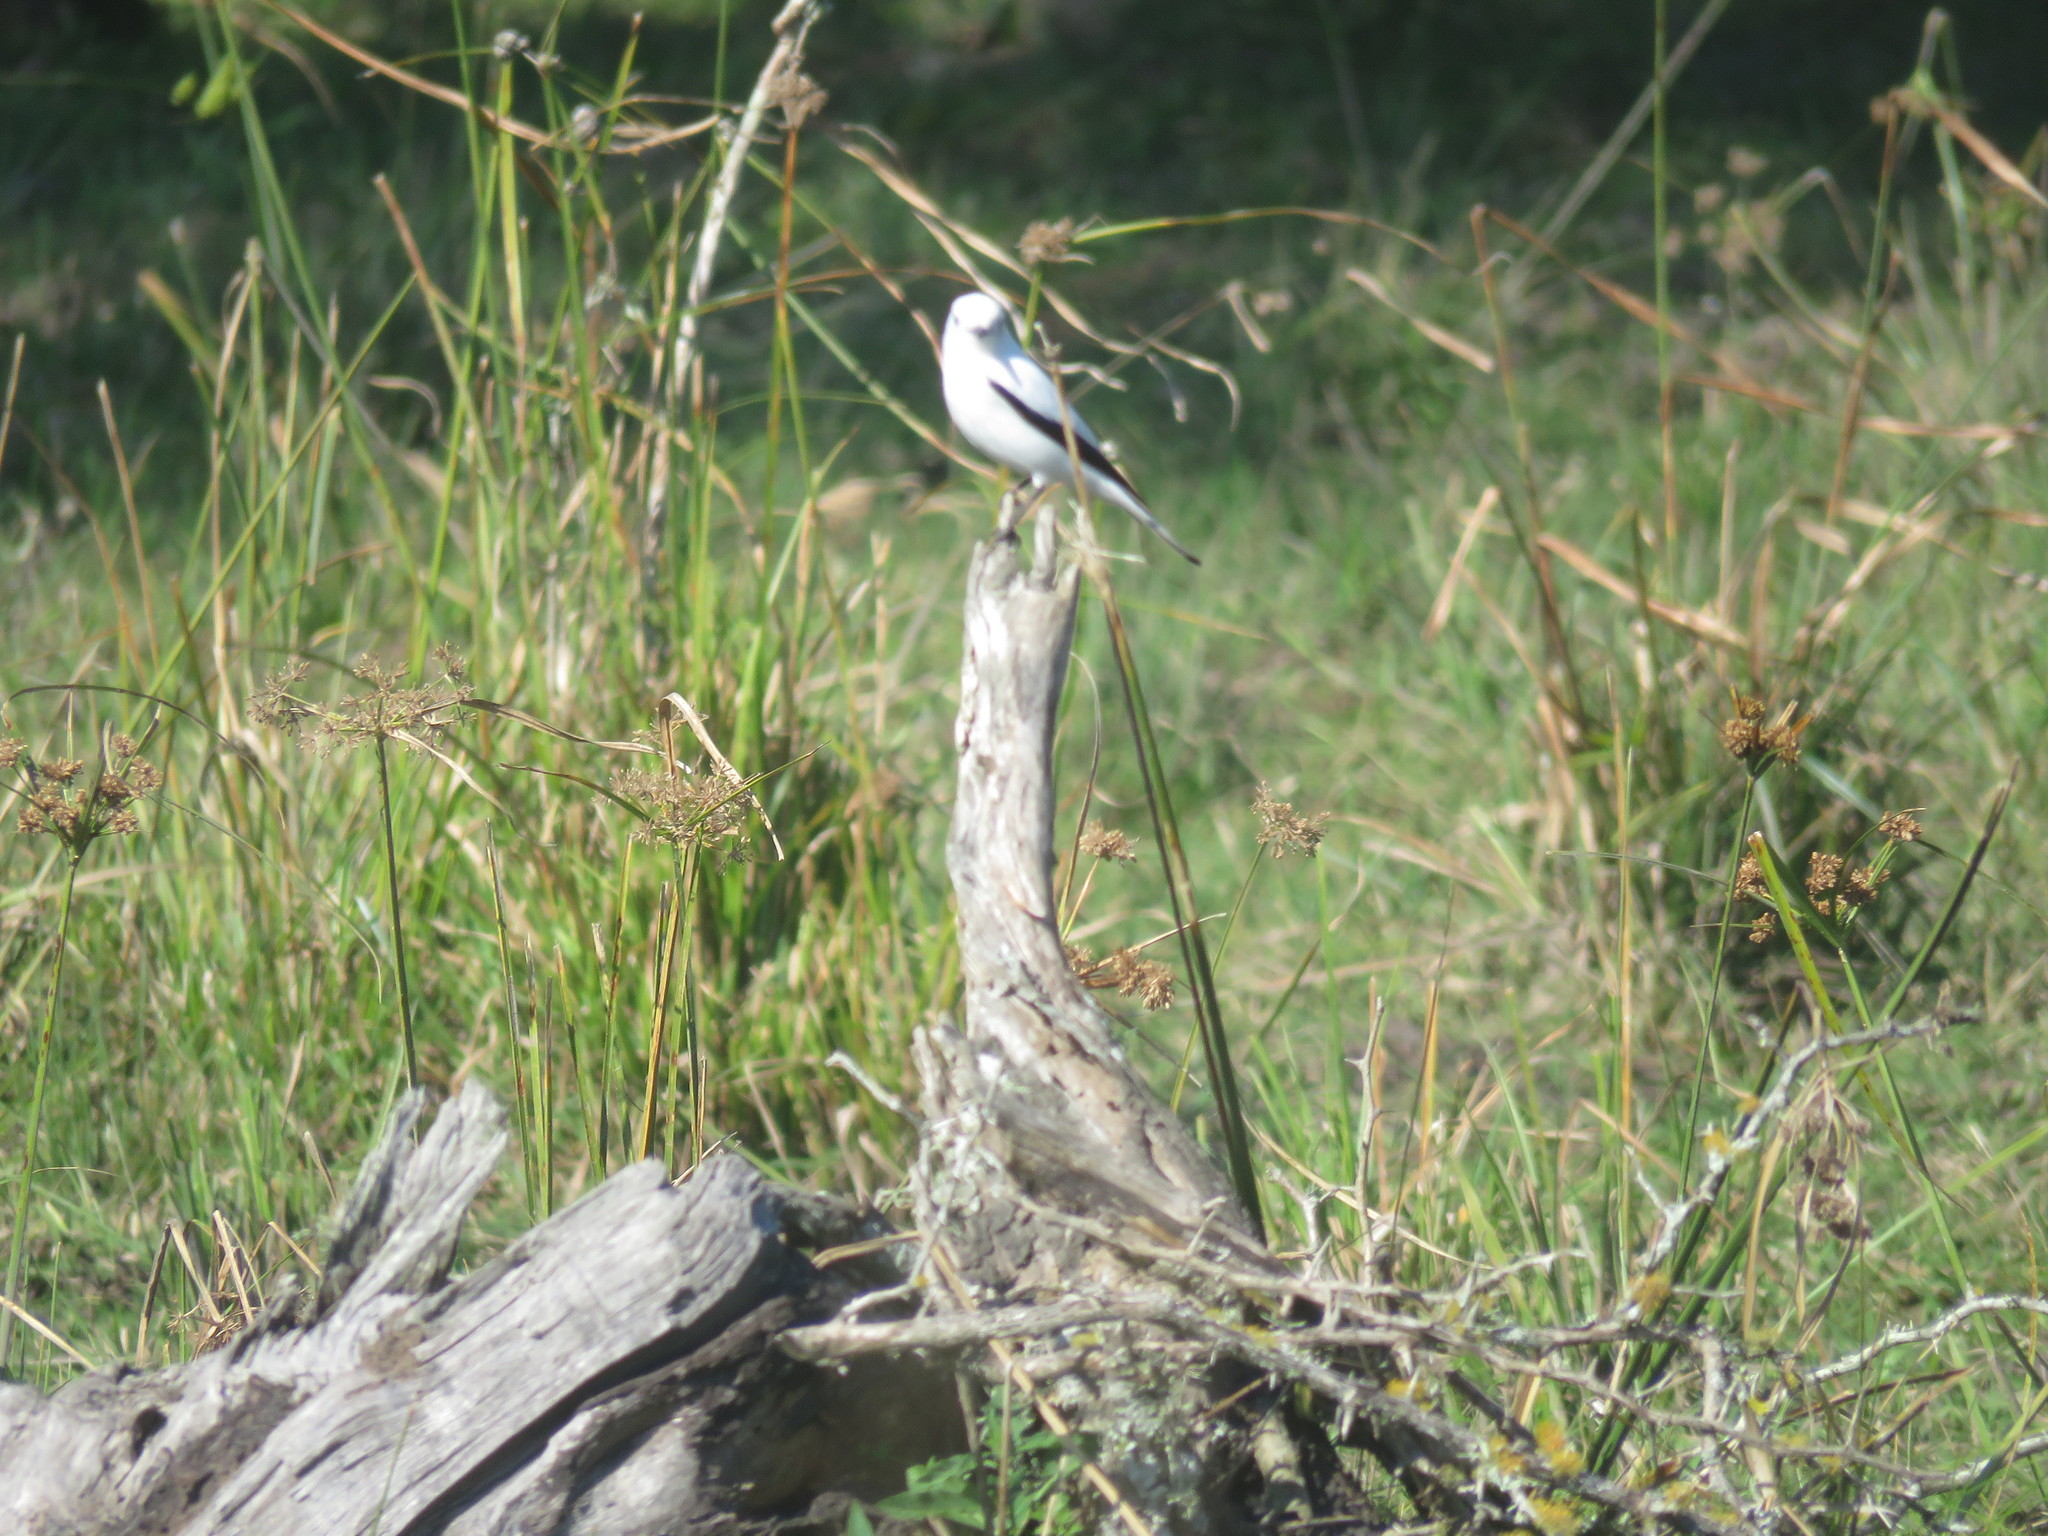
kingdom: Animalia
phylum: Chordata
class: Aves
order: Passeriformes
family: Tyrannidae
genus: Xolmis
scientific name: Xolmis irupero
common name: White monjita
